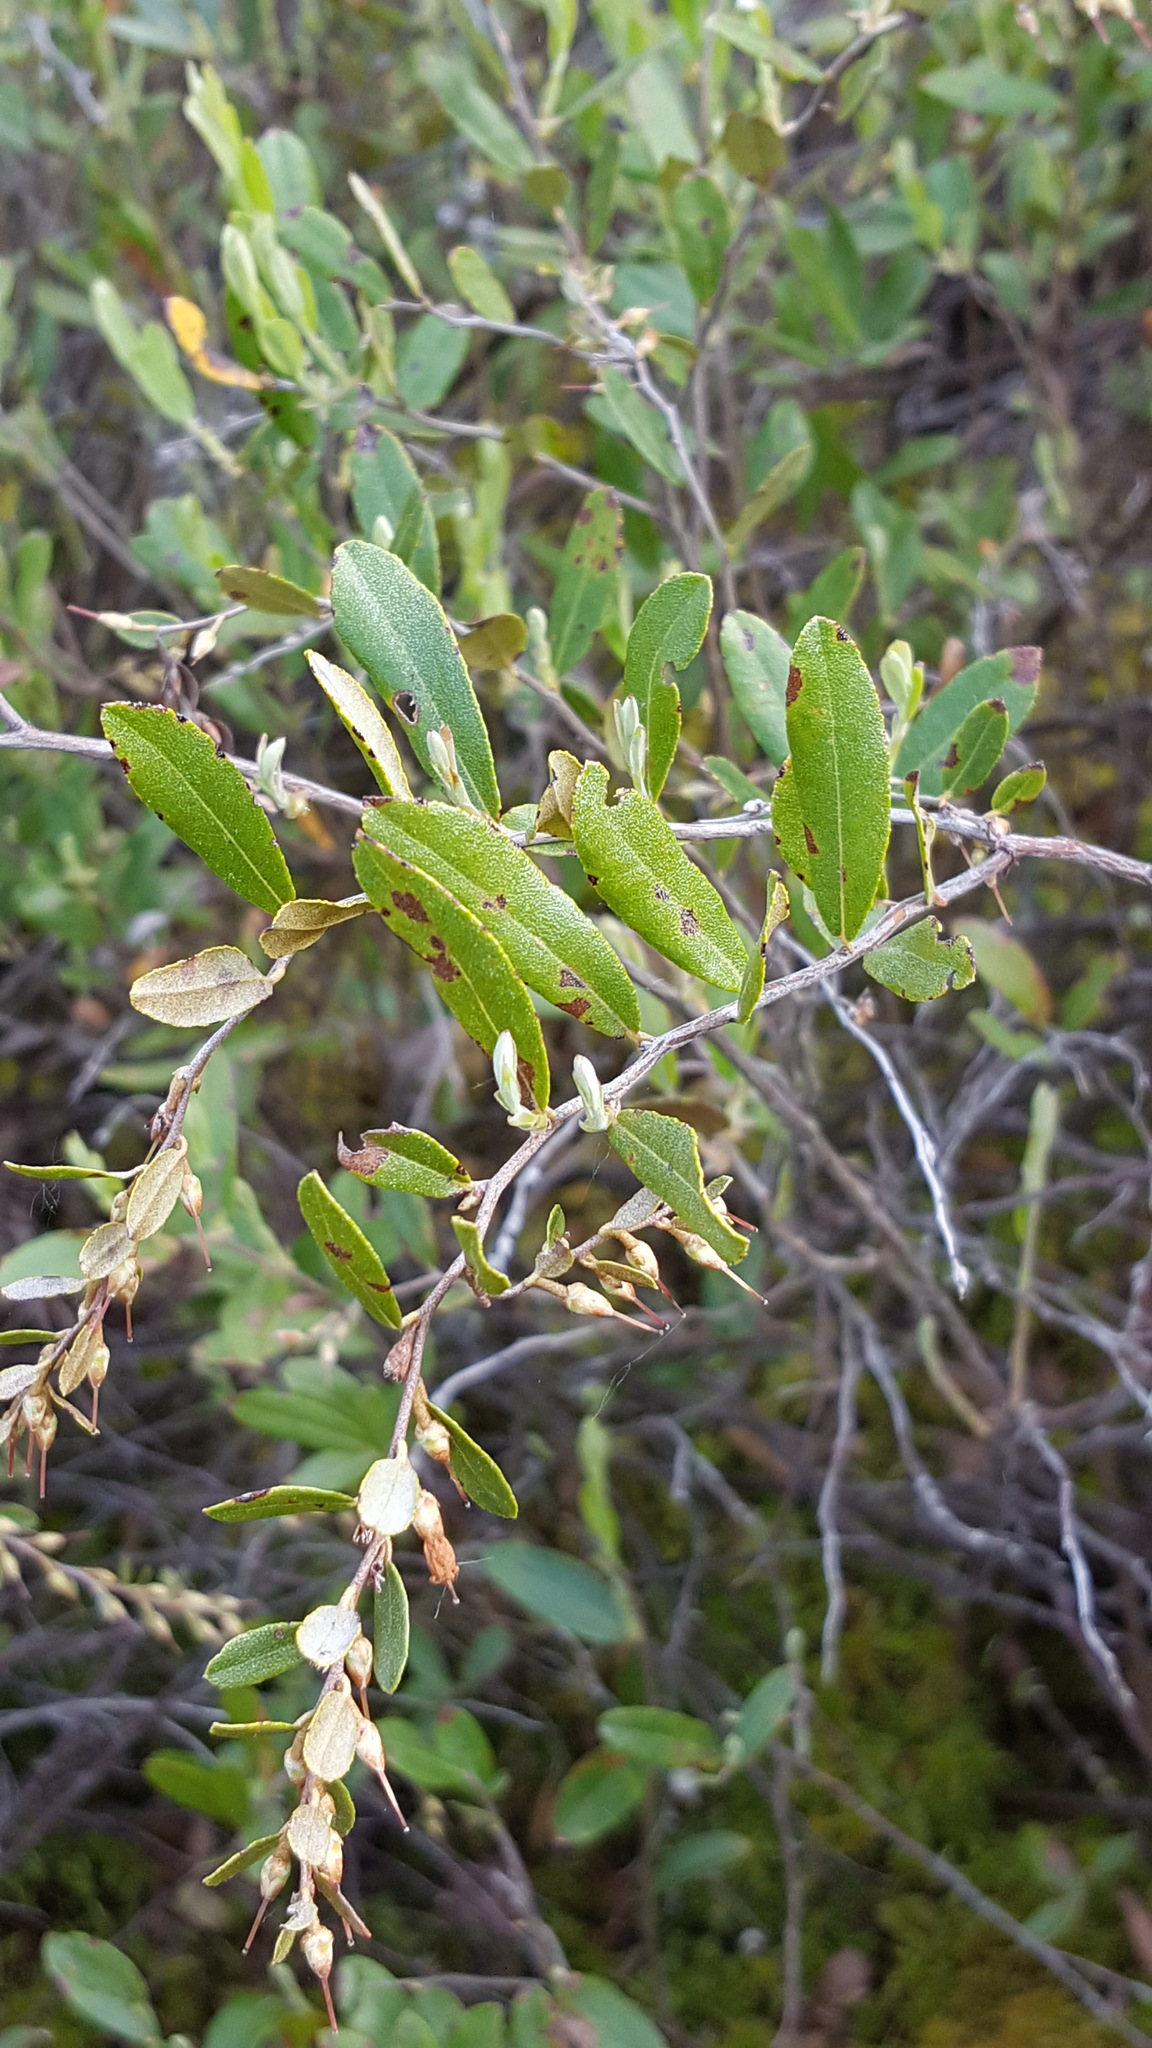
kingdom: Plantae
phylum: Tracheophyta
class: Magnoliopsida
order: Ericales
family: Ericaceae
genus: Chamaedaphne
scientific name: Chamaedaphne calyculata
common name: Leatherleaf
